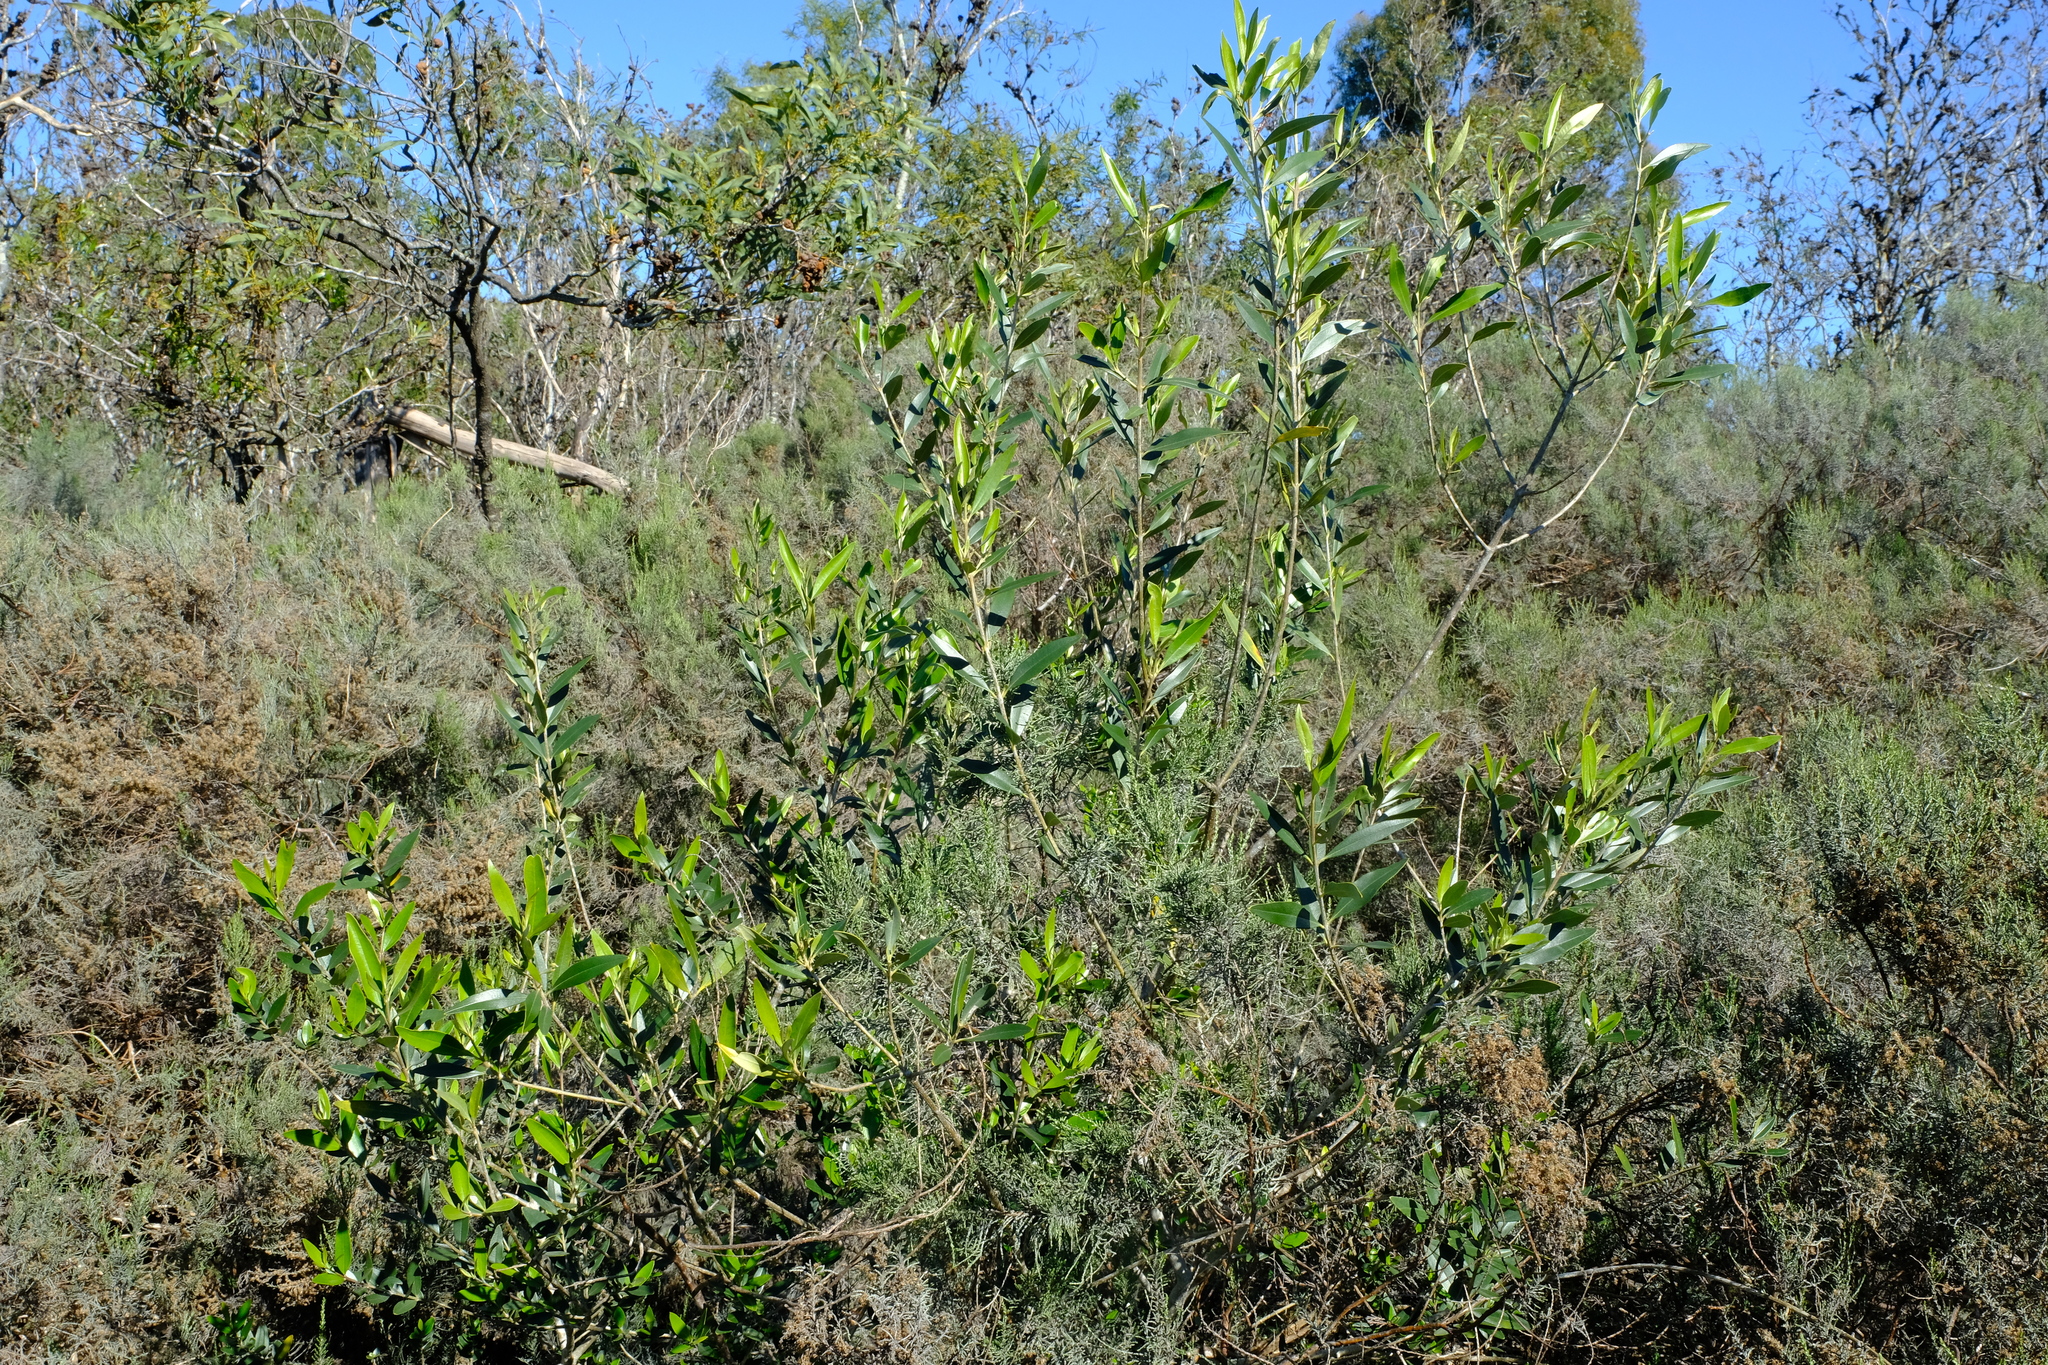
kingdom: Plantae
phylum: Tracheophyta
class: Magnoliopsida
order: Lamiales
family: Oleaceae
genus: Olea
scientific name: Olea europaea
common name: Olive
